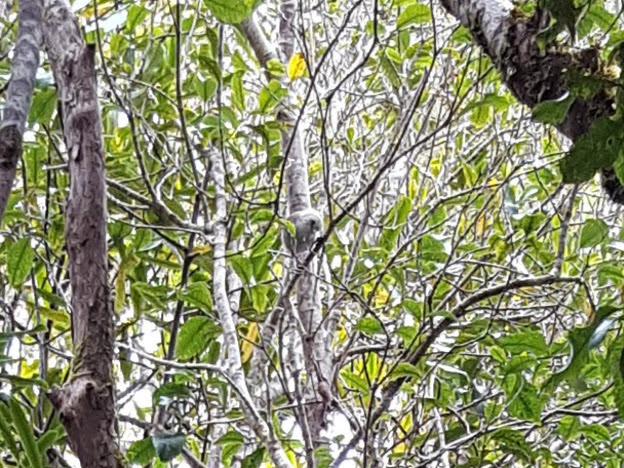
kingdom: Animalia
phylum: Chordata
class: Aves
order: Passeriformes
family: Acanthizidae
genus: Mohoua
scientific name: Mohoua albicilla
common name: Whitehead
